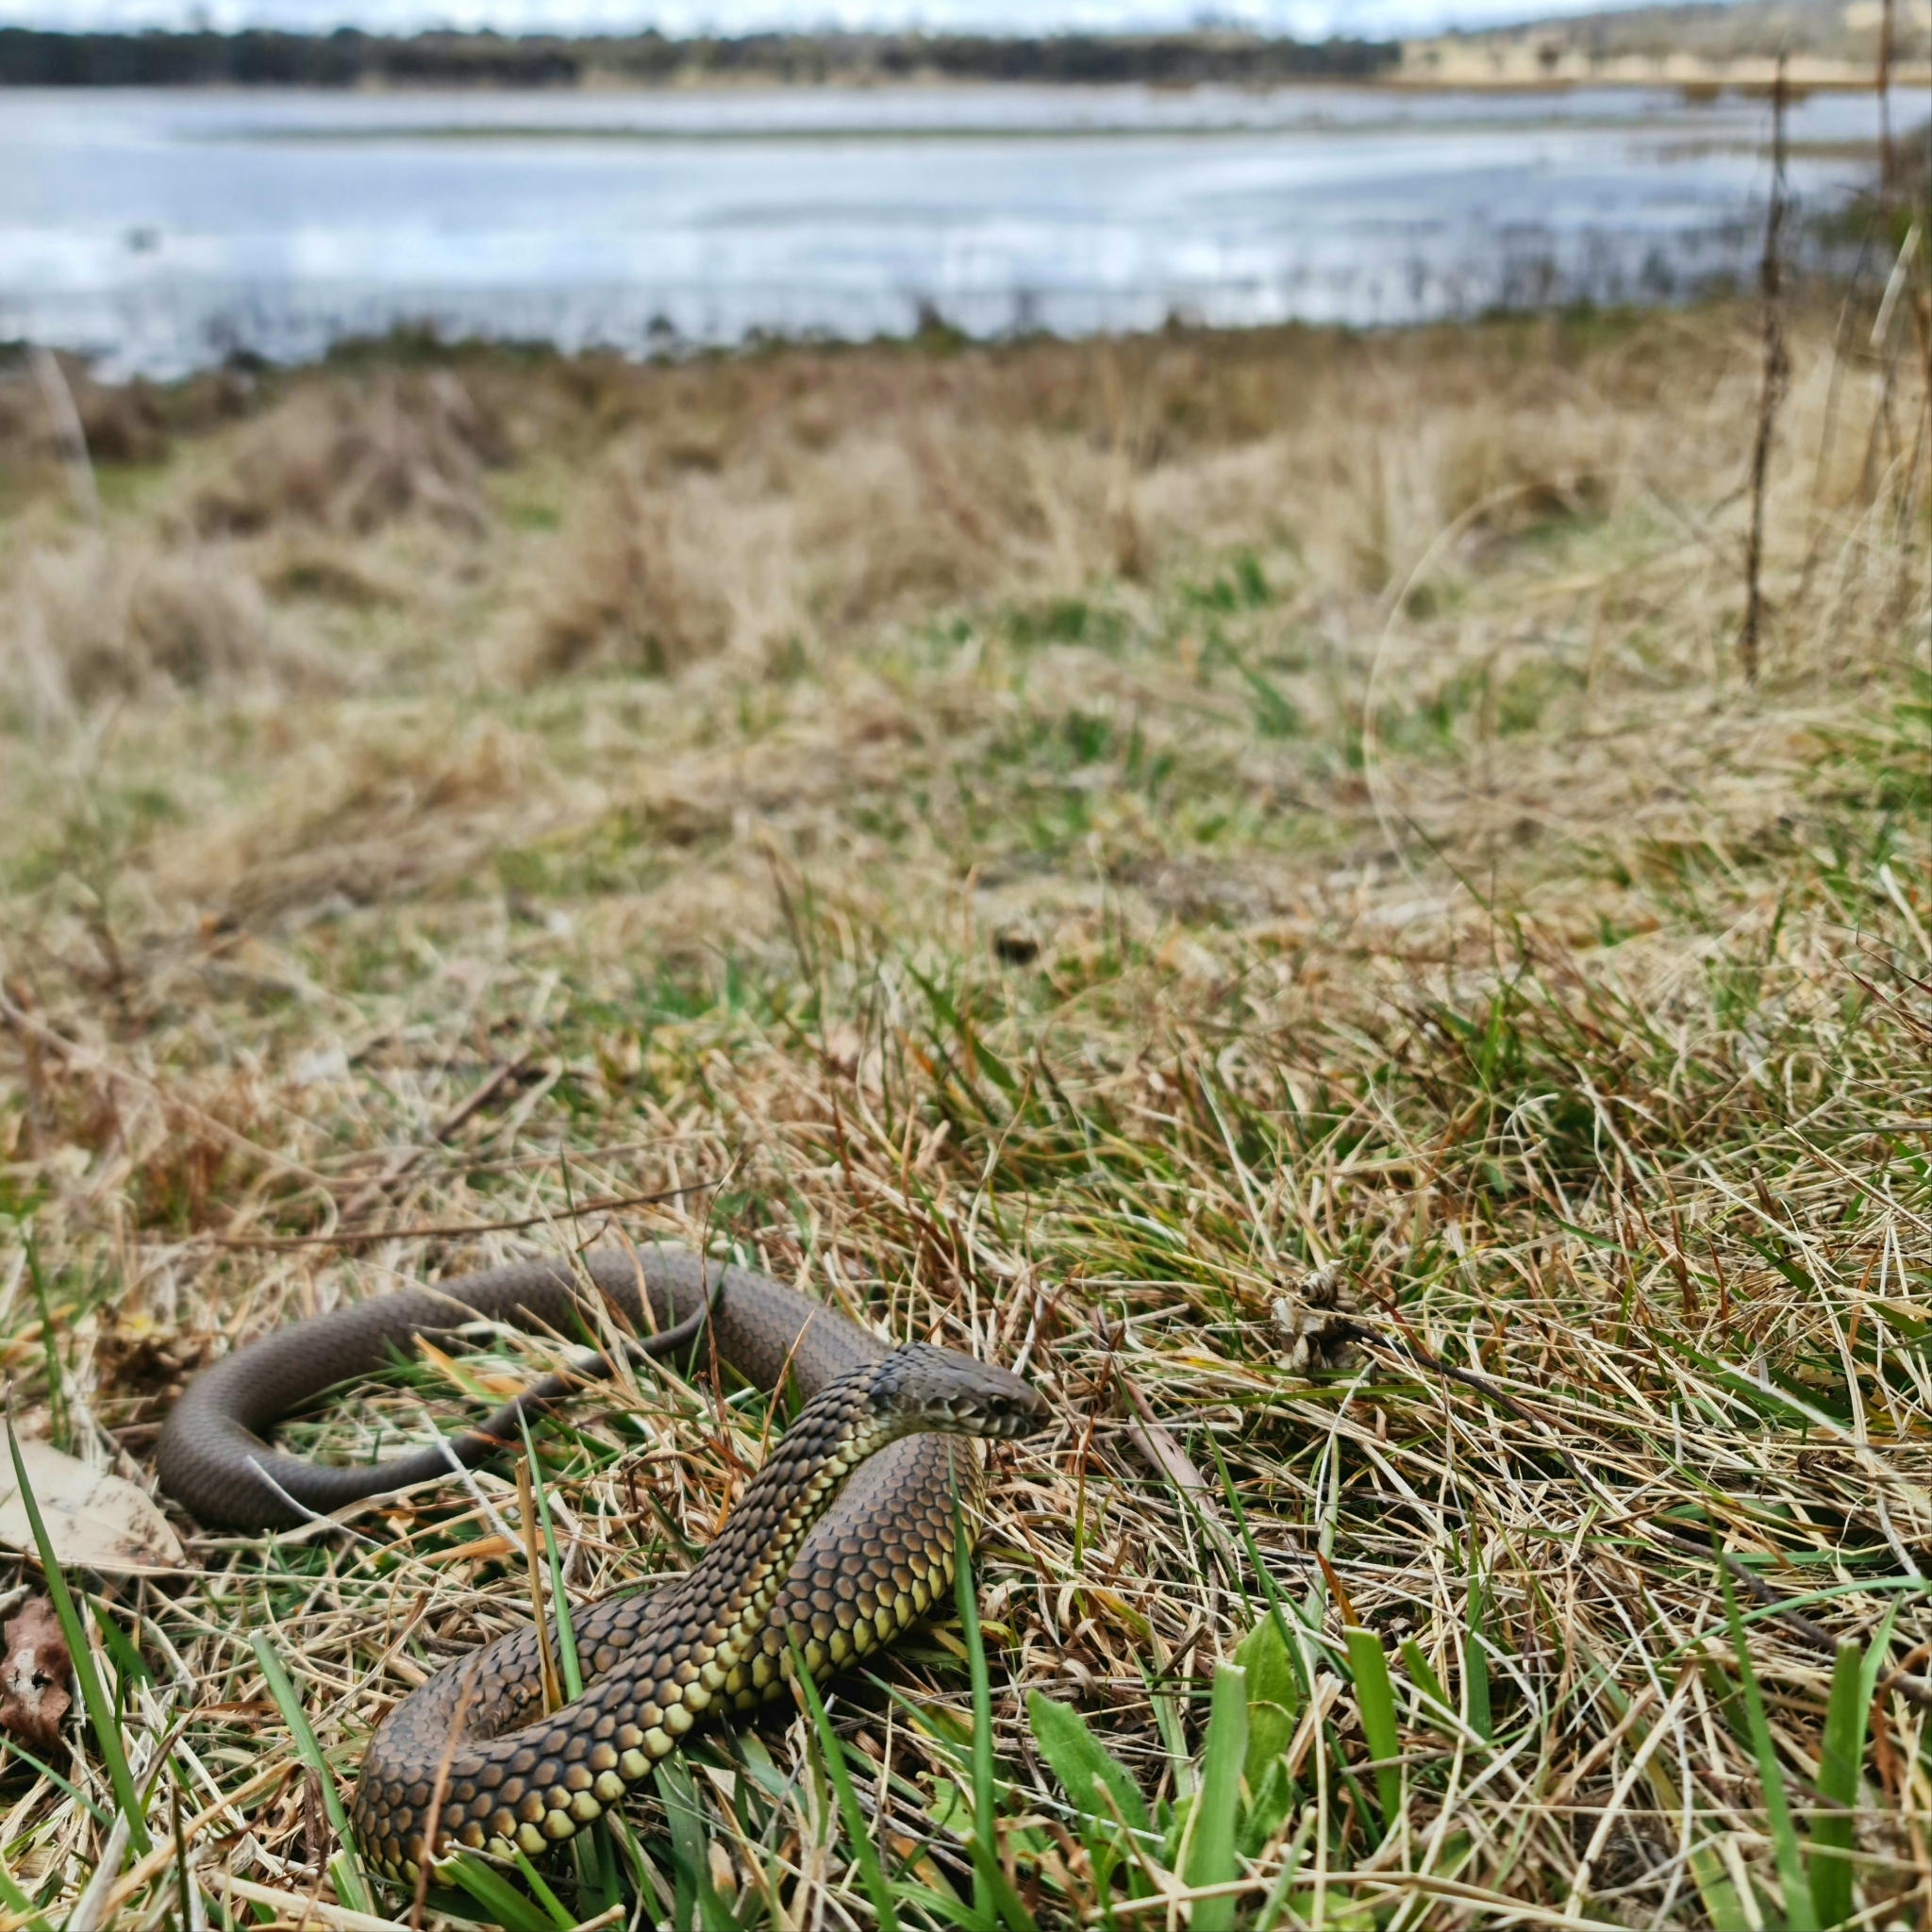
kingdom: Animalia
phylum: Chordata
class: Squamata
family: Elapidae
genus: Austrelaps
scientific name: Austrelaps ramsayi
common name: Highlands copperhead
